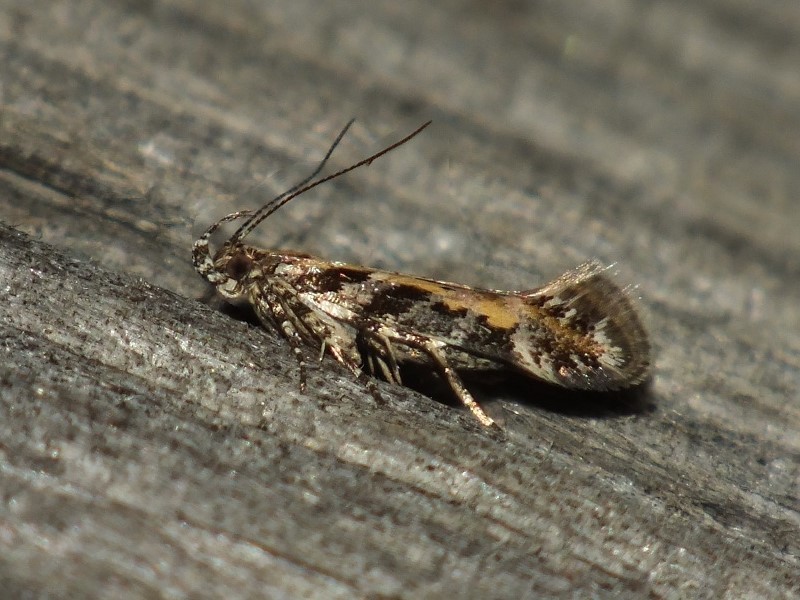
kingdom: Animalia
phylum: Arthropoda
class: Insecta
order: Lepidoptera
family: Gelechiidae
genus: Aristotelia
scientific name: Aristotelia billii
